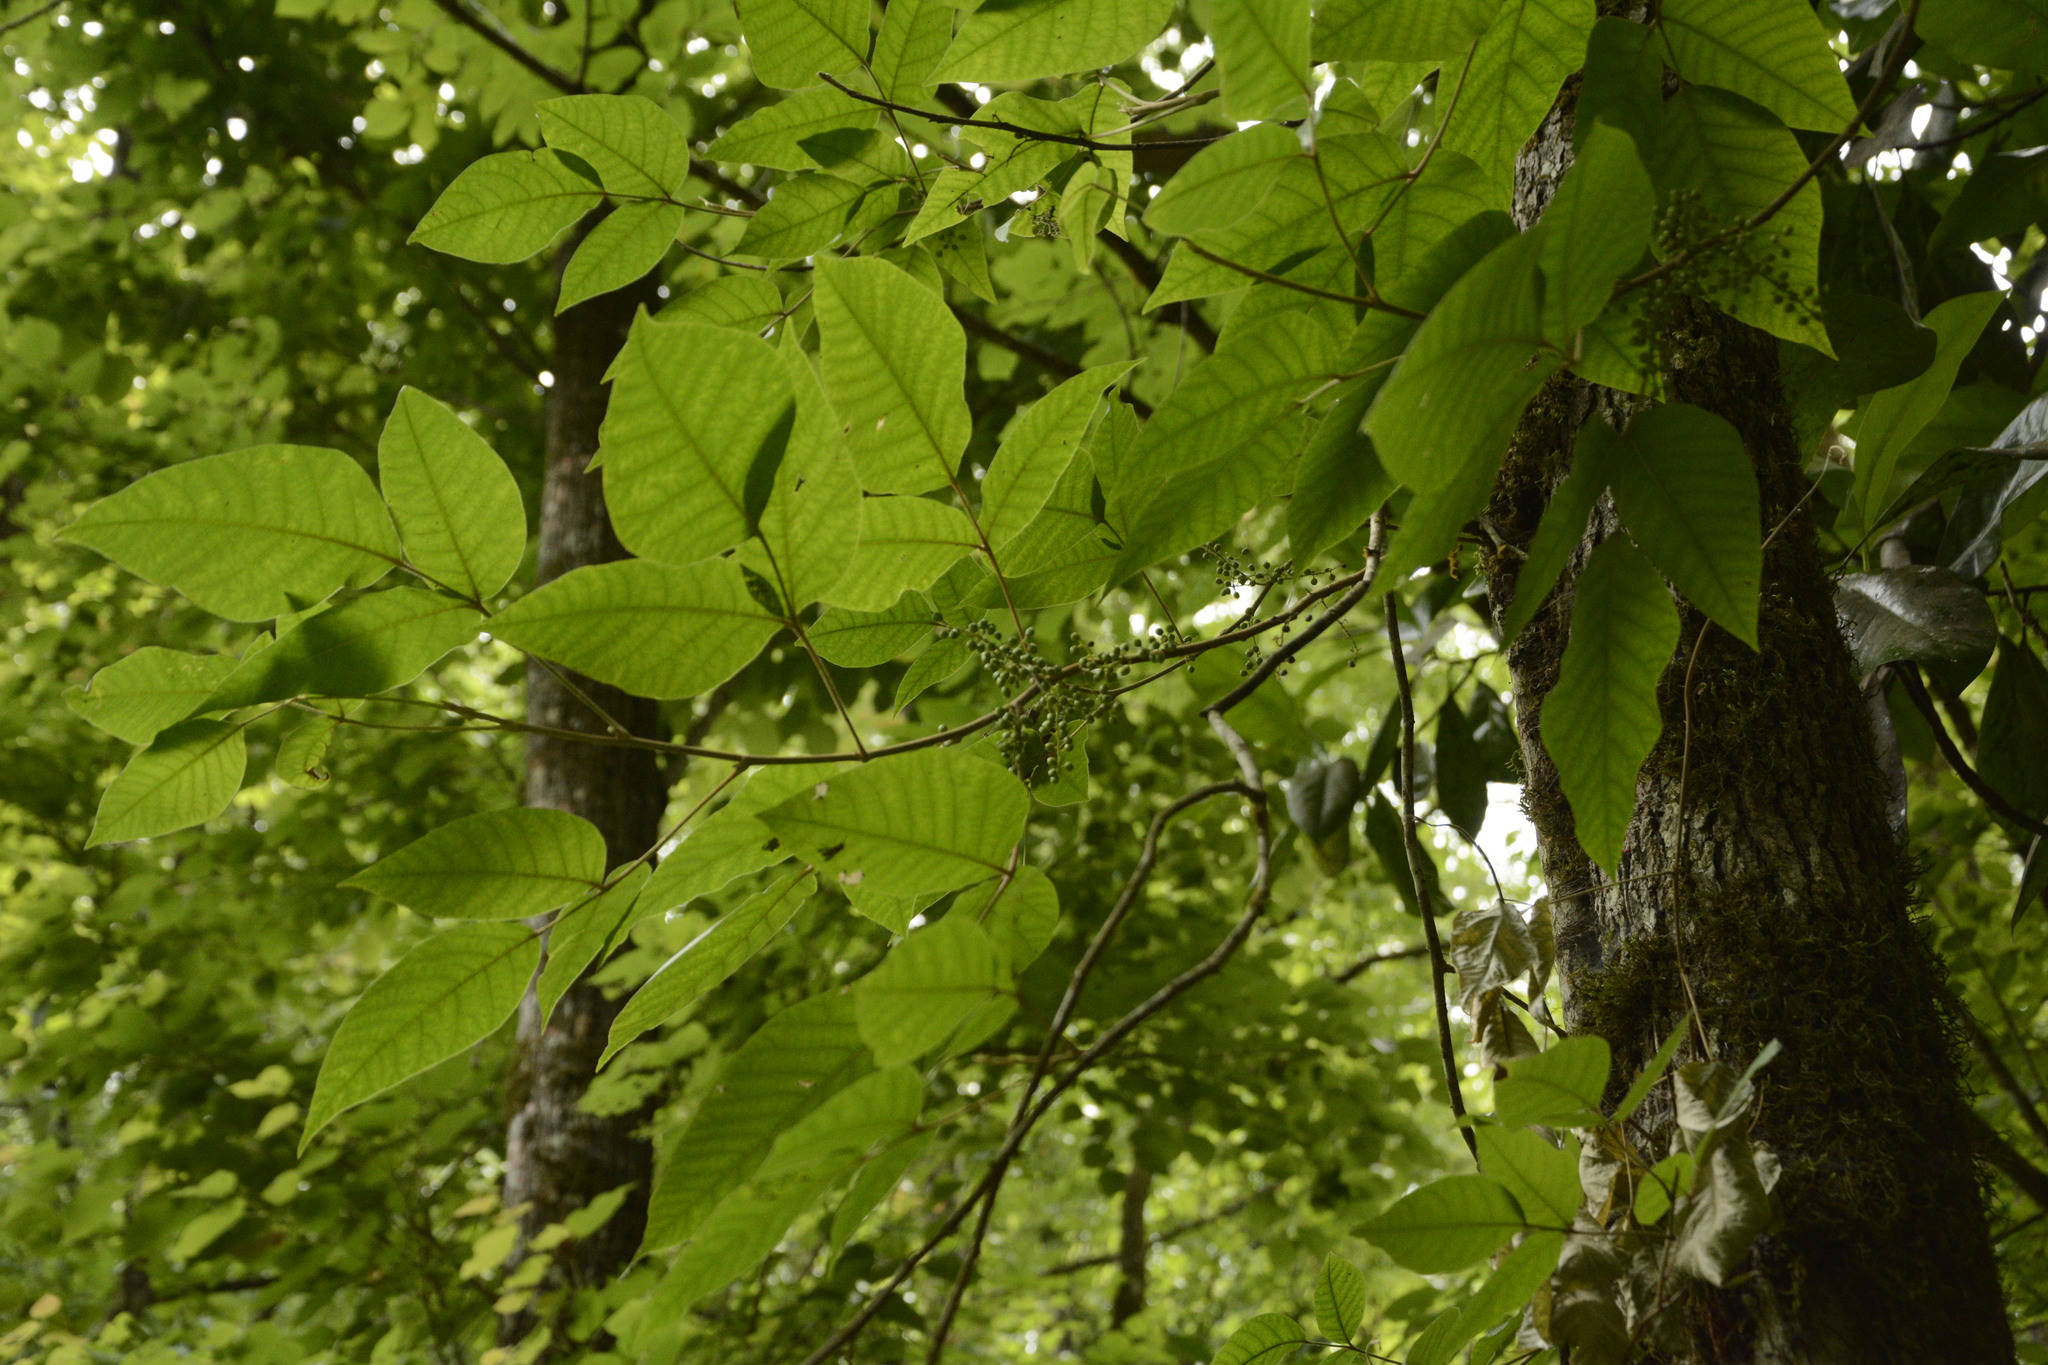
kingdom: Plantae
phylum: Tracheophyta
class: Magnoliopsida
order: Sapindales
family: Anacardiaceae
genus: Toxicodendron
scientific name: Toxicodendron radicans
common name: Poison ivy
